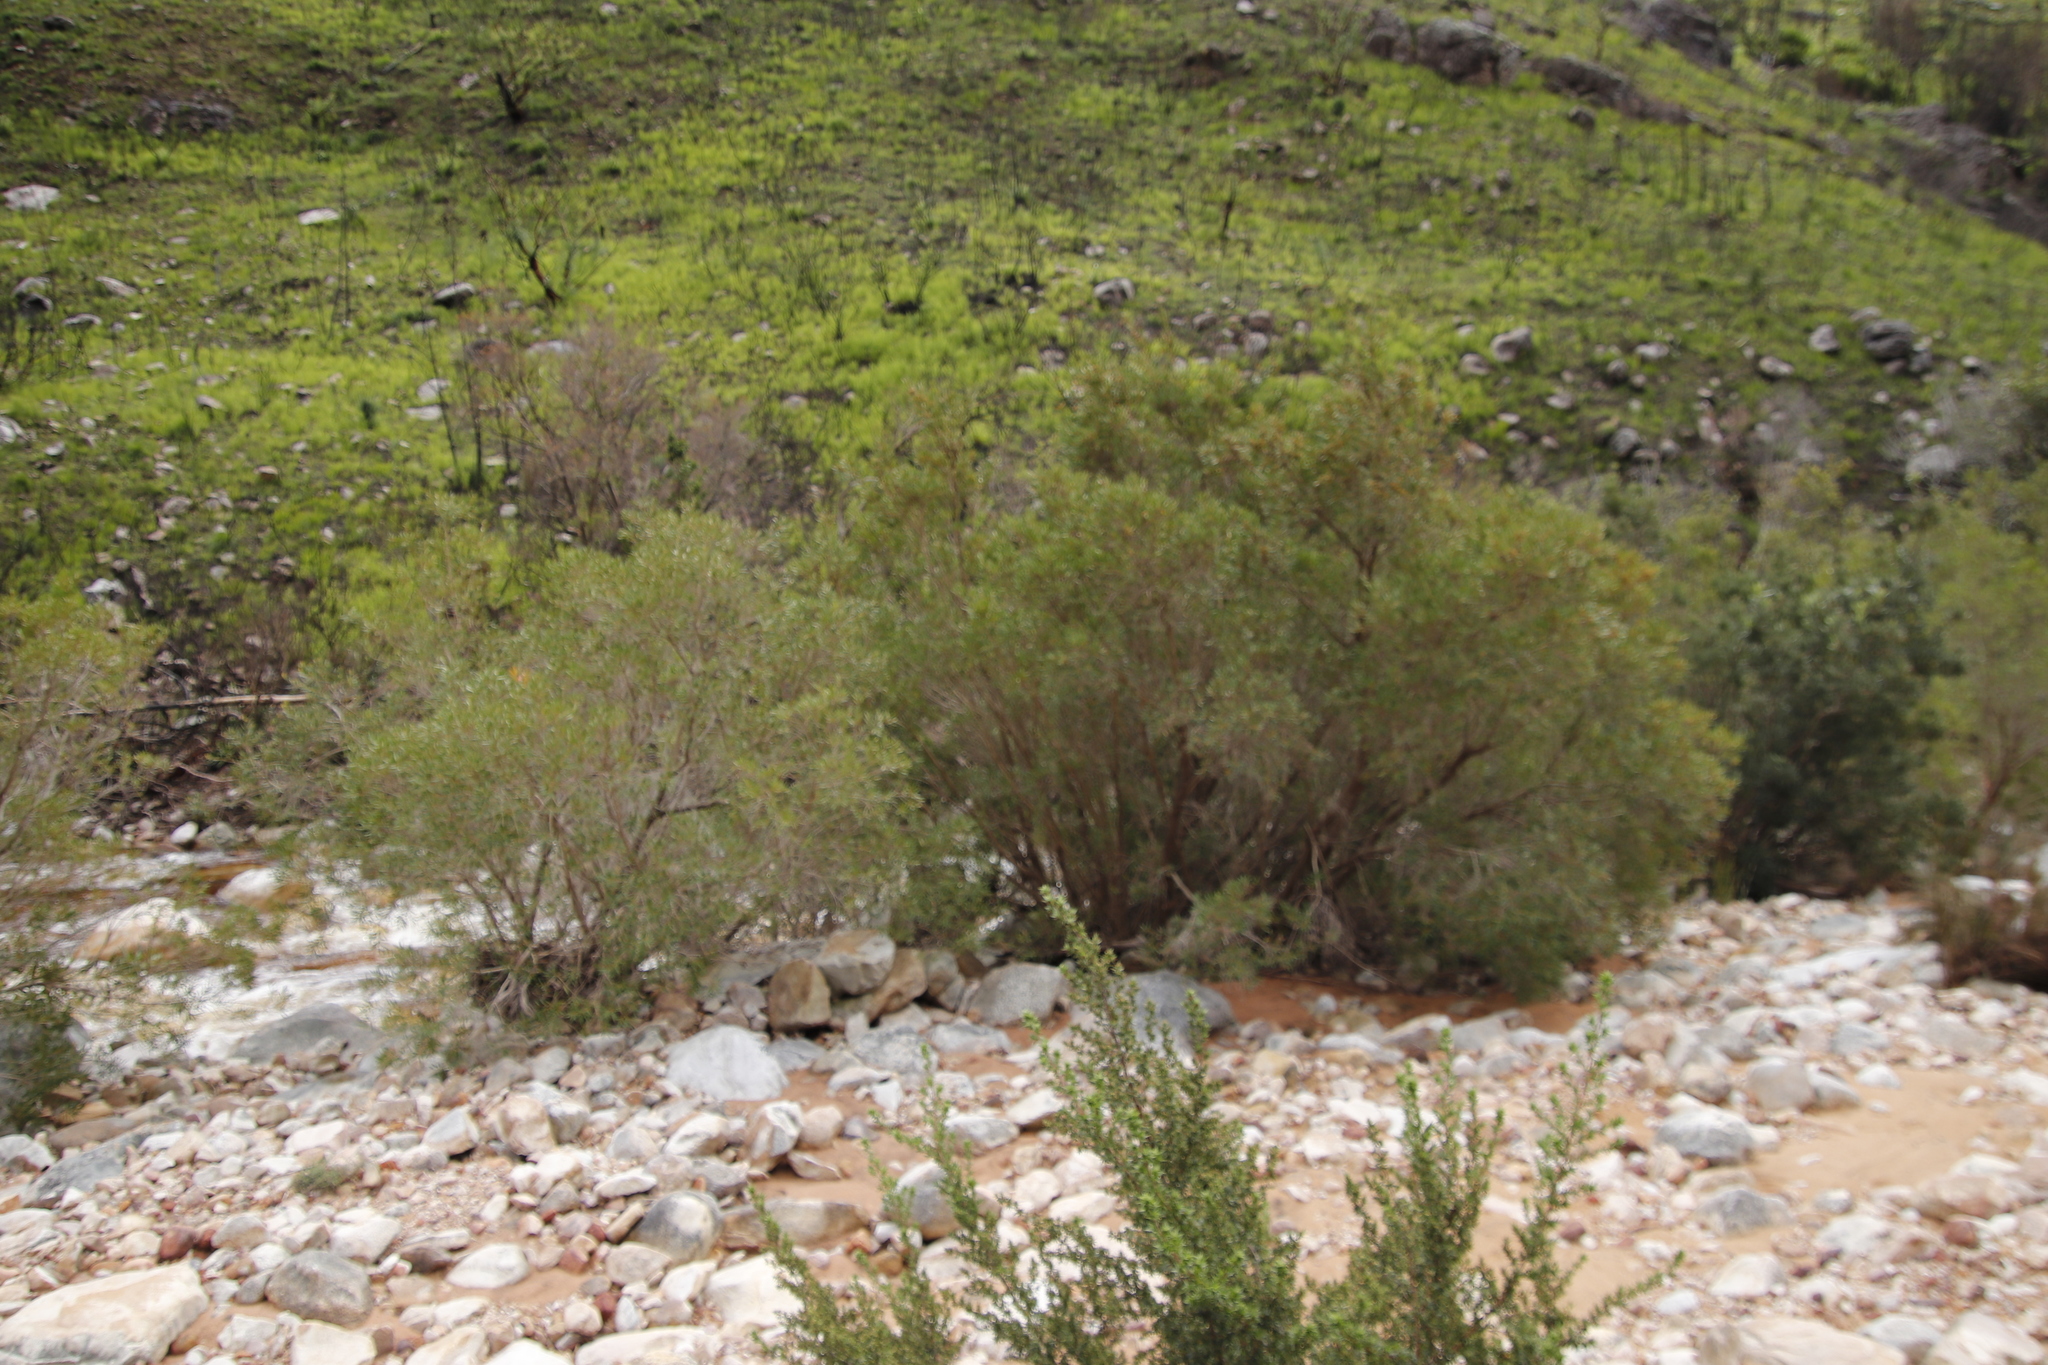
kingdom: Plantae
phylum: Tracheophyta
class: Magnoliopsida
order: Myrtales
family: Myrtaceae
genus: Callistemon
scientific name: Callistemon lanceolatus
